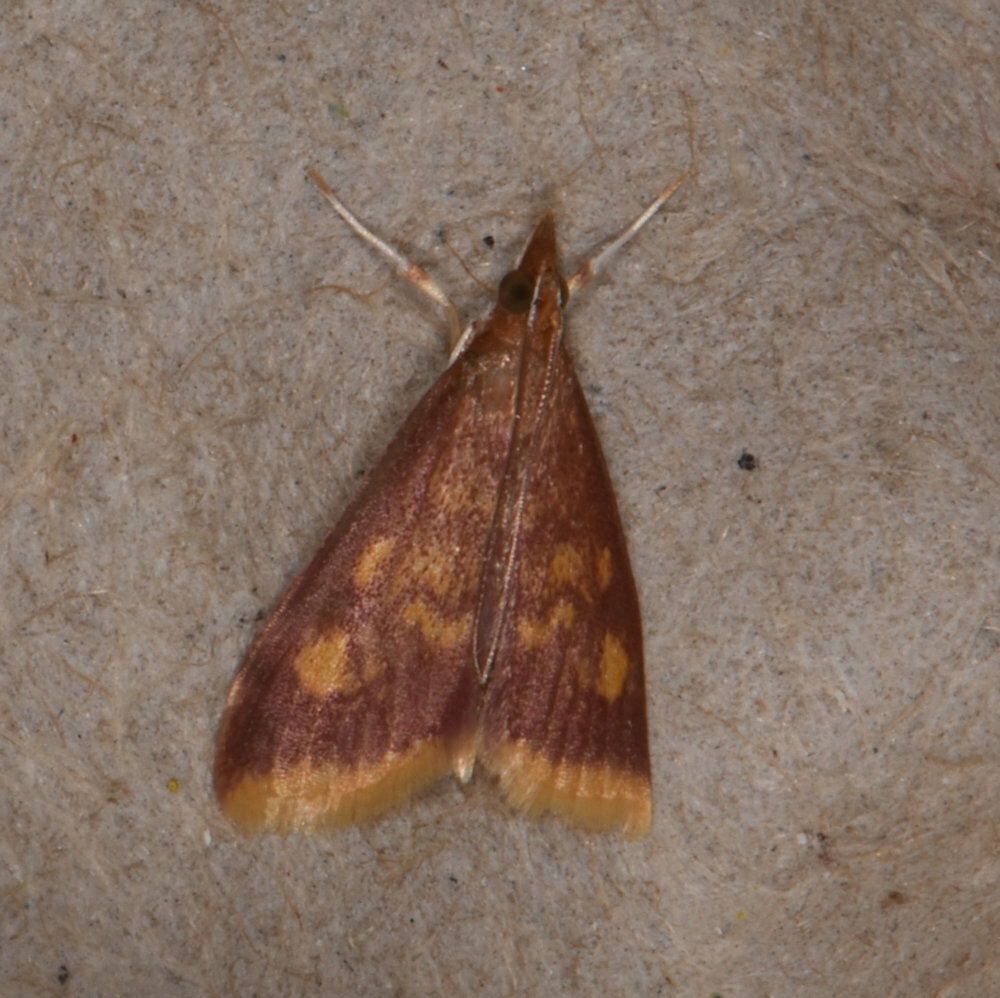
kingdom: Animalia
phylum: Arthropoda
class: Insecta
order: Lepidoptera
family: Crambidae
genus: Pyrausta
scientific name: Pyrausta acrionalis
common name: Mint-loving pyrausta moth
